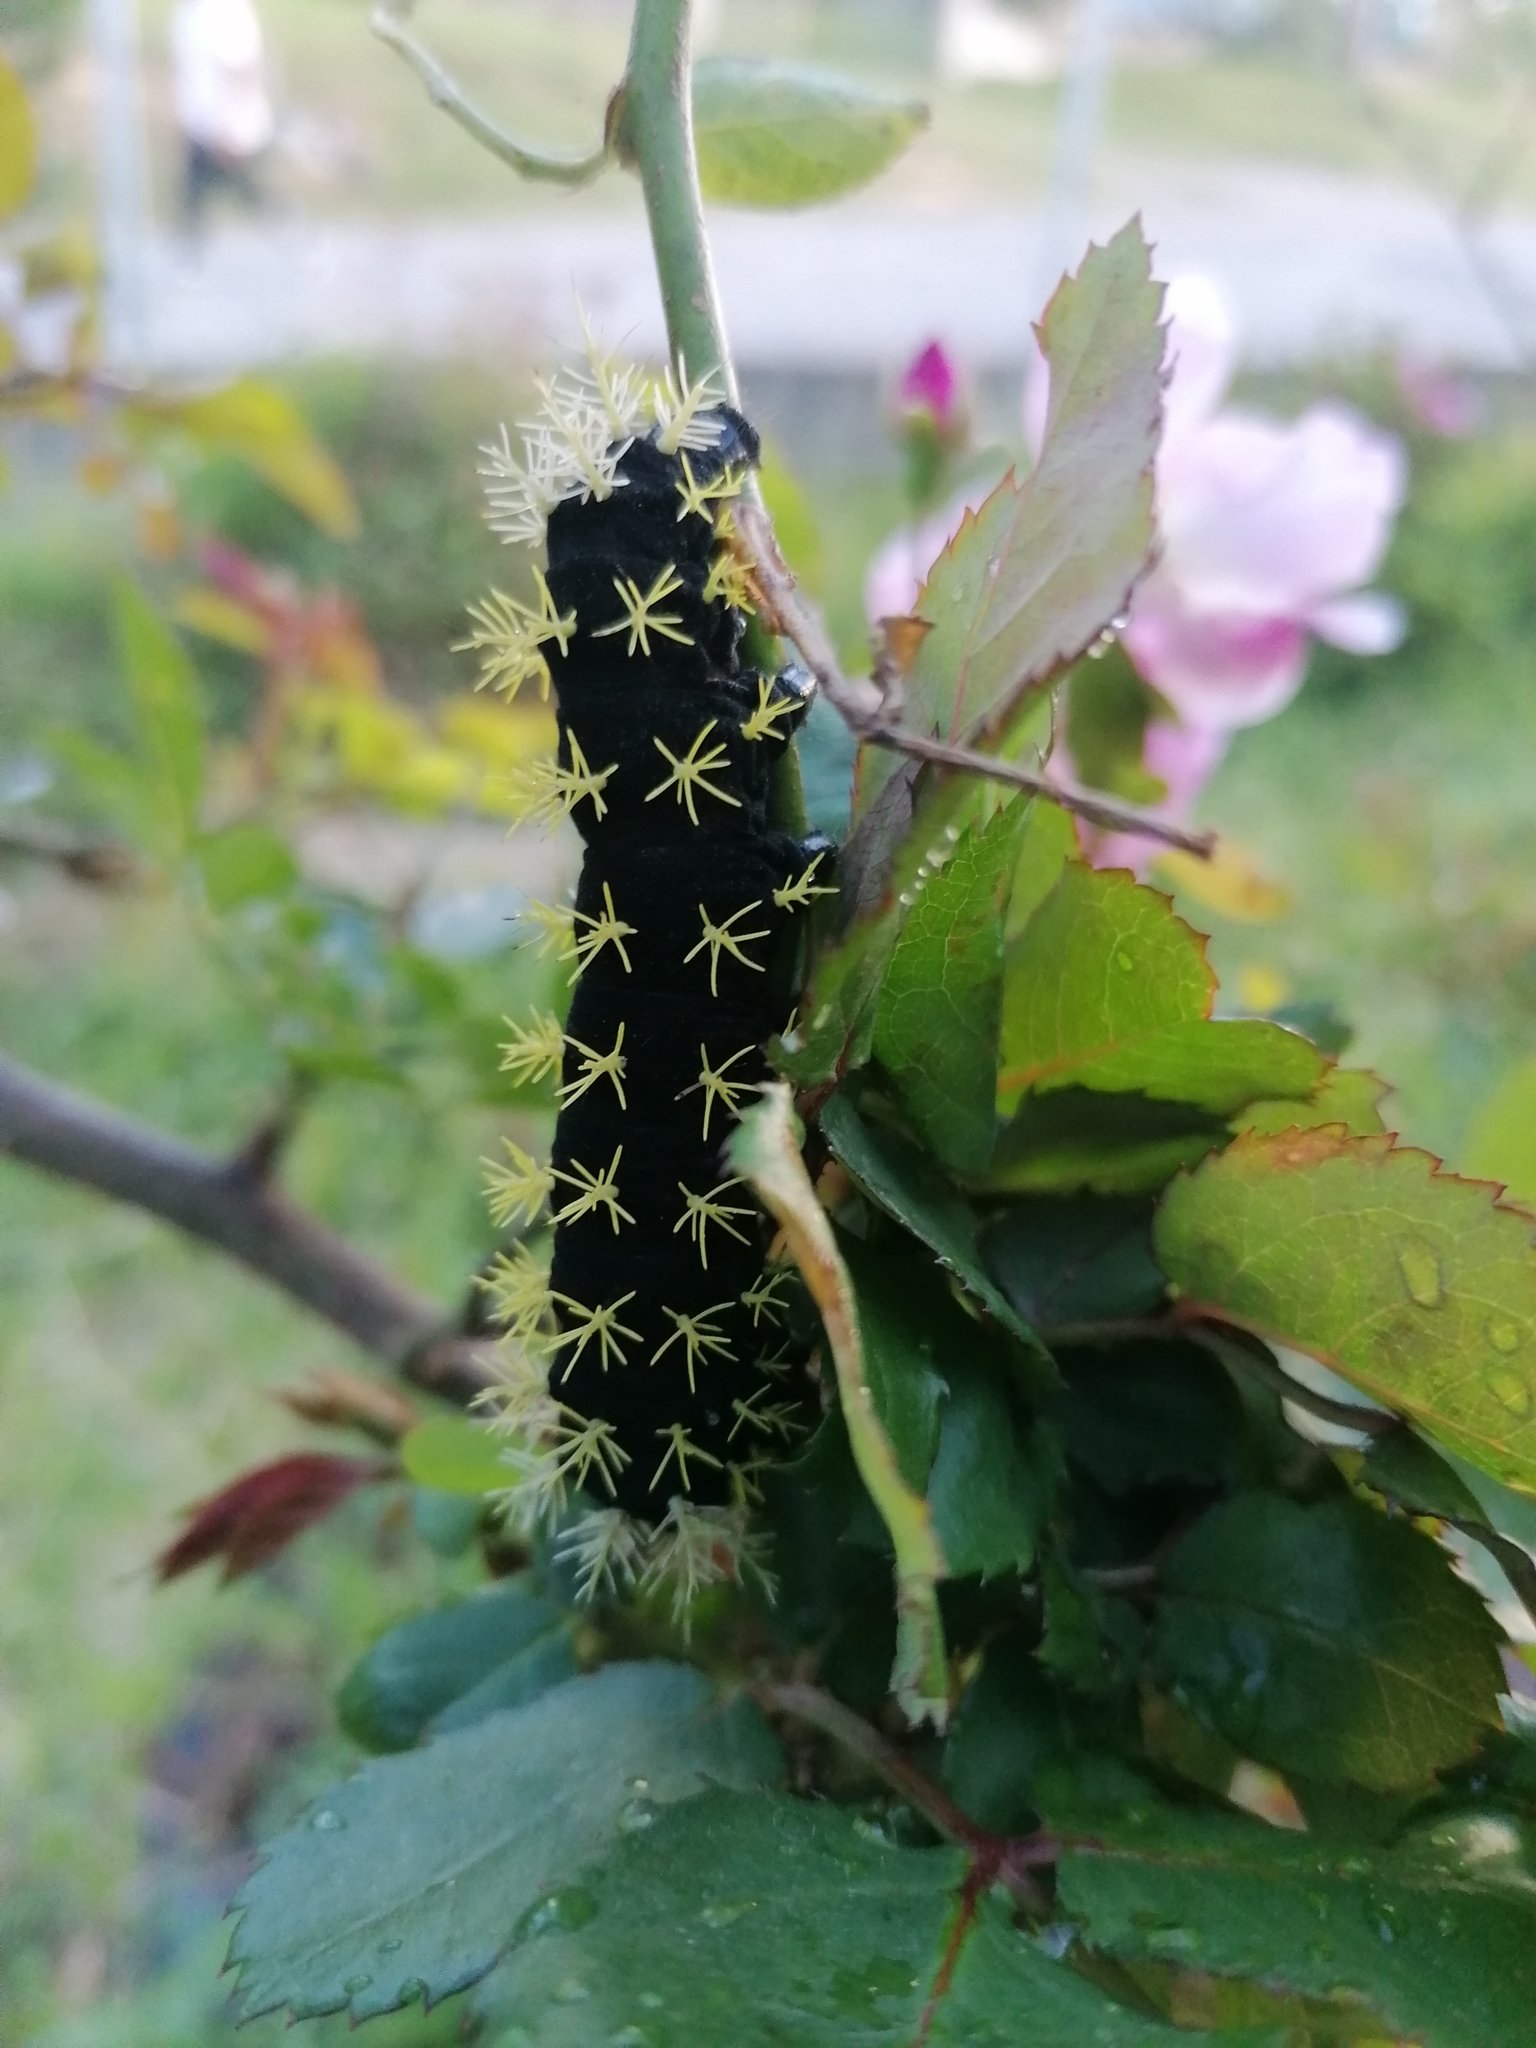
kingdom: Animalia
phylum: Arthropoda
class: Insecta
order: Lepidoptera
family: Nymphalidae
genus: Colobura
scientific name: Colobura dirce
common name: Dirce beauty
